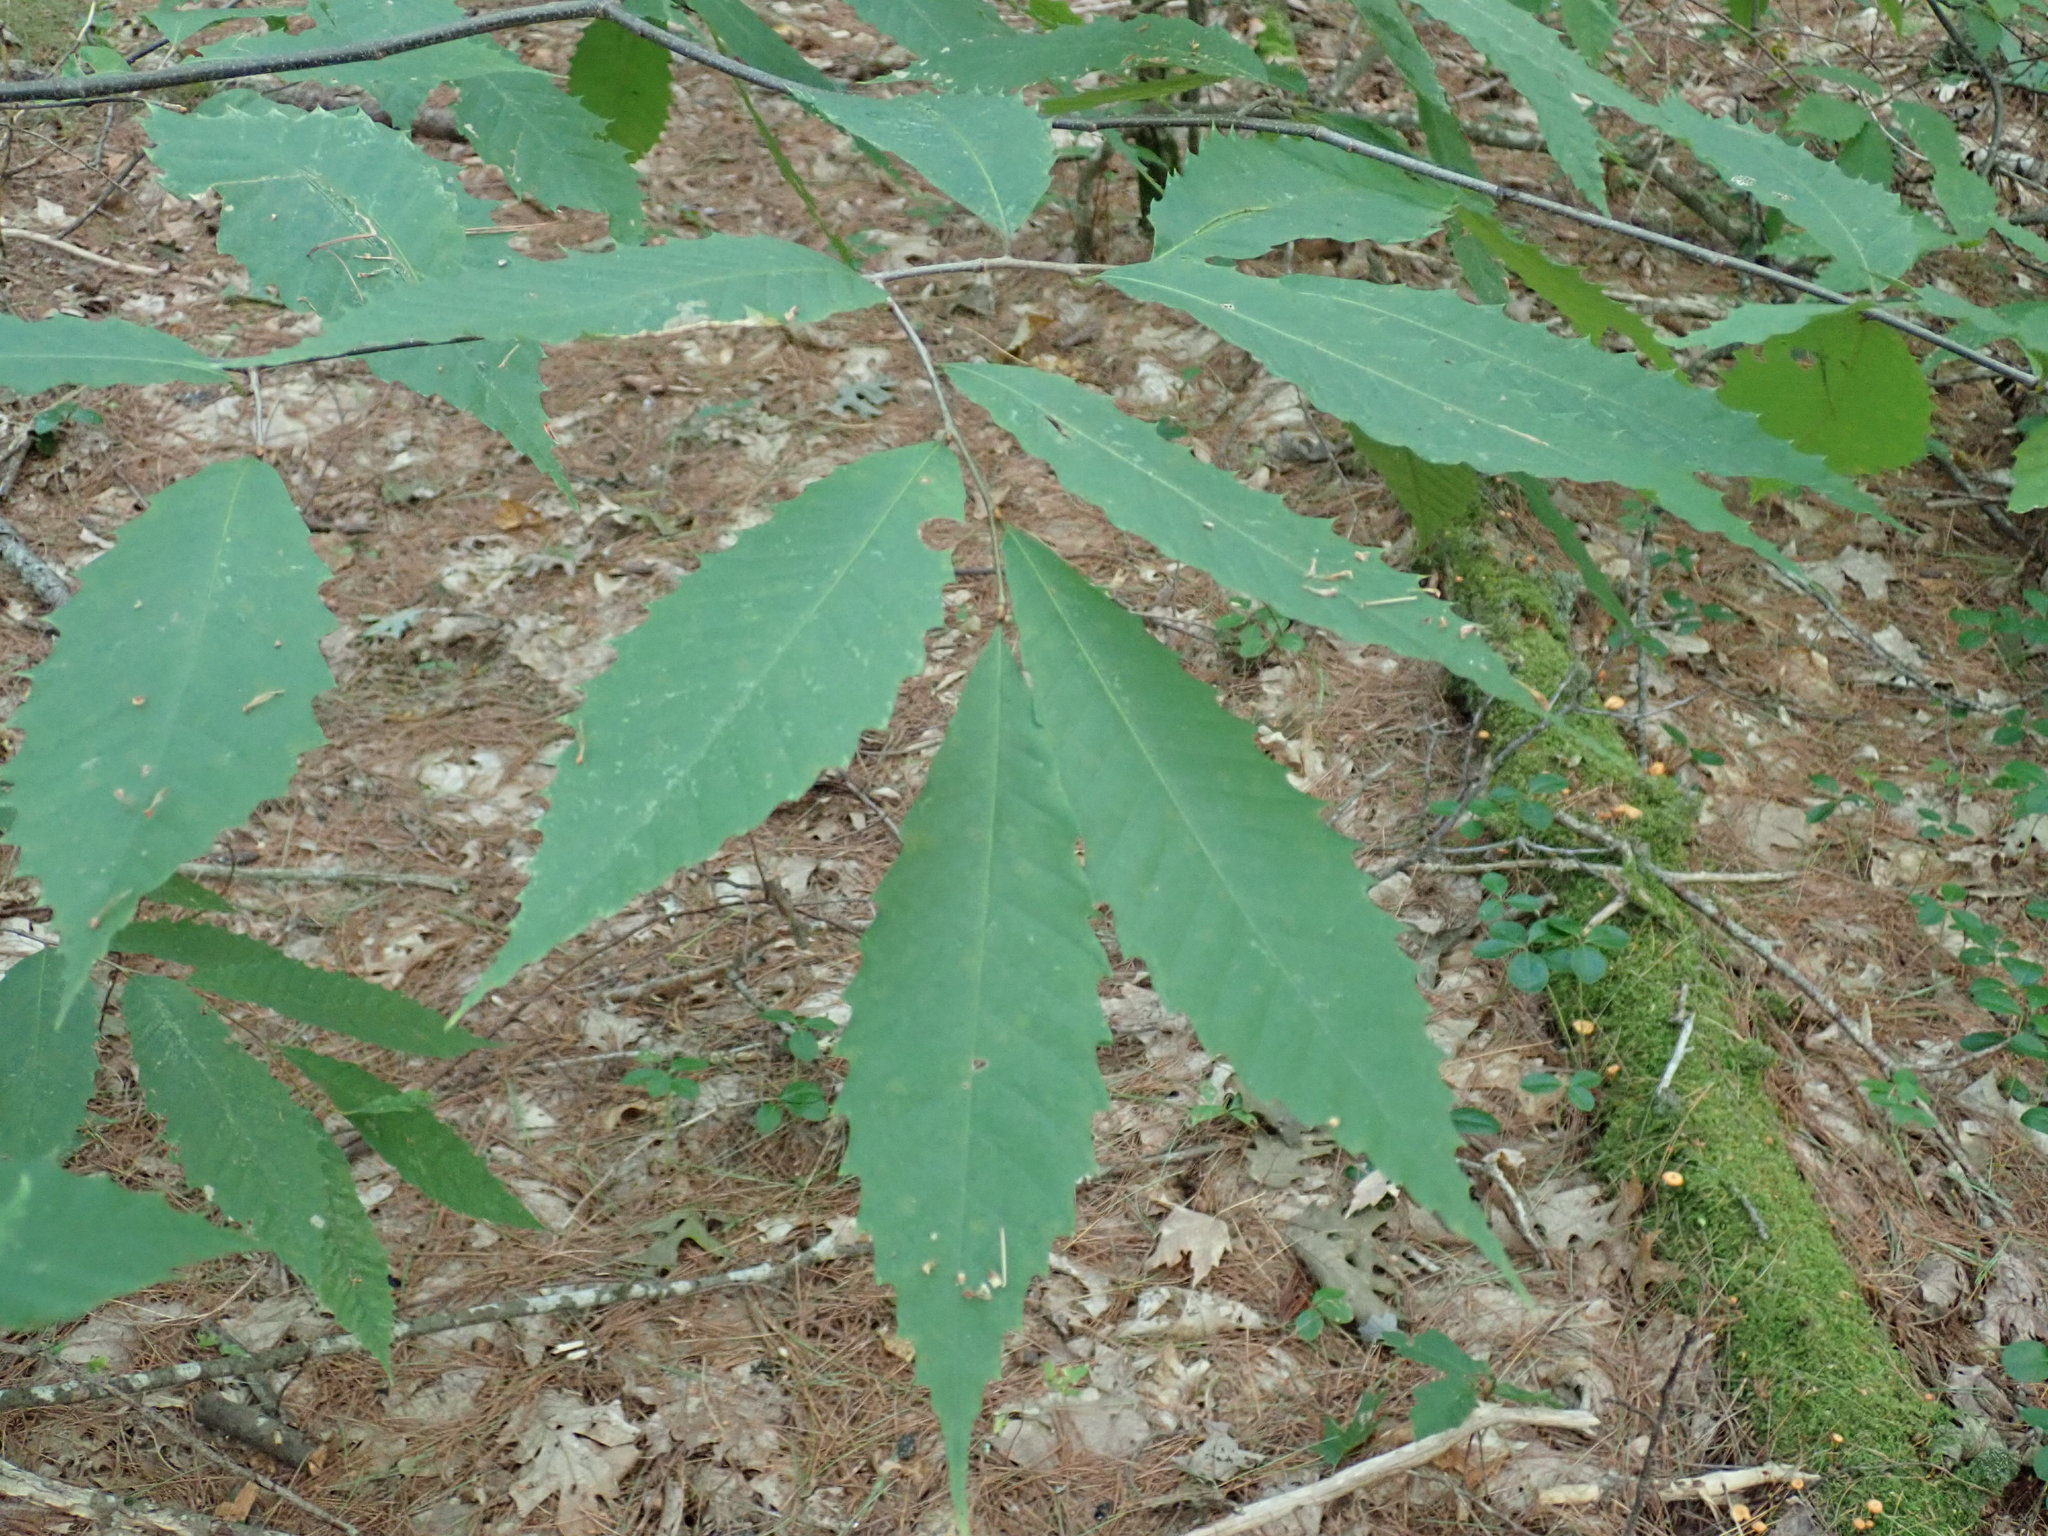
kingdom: Plantae
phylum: Tracheophyta
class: Magnoliopsida
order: Fagales
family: Fagaceae
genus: Castanea
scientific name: Castanea dentata
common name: American chestnut
